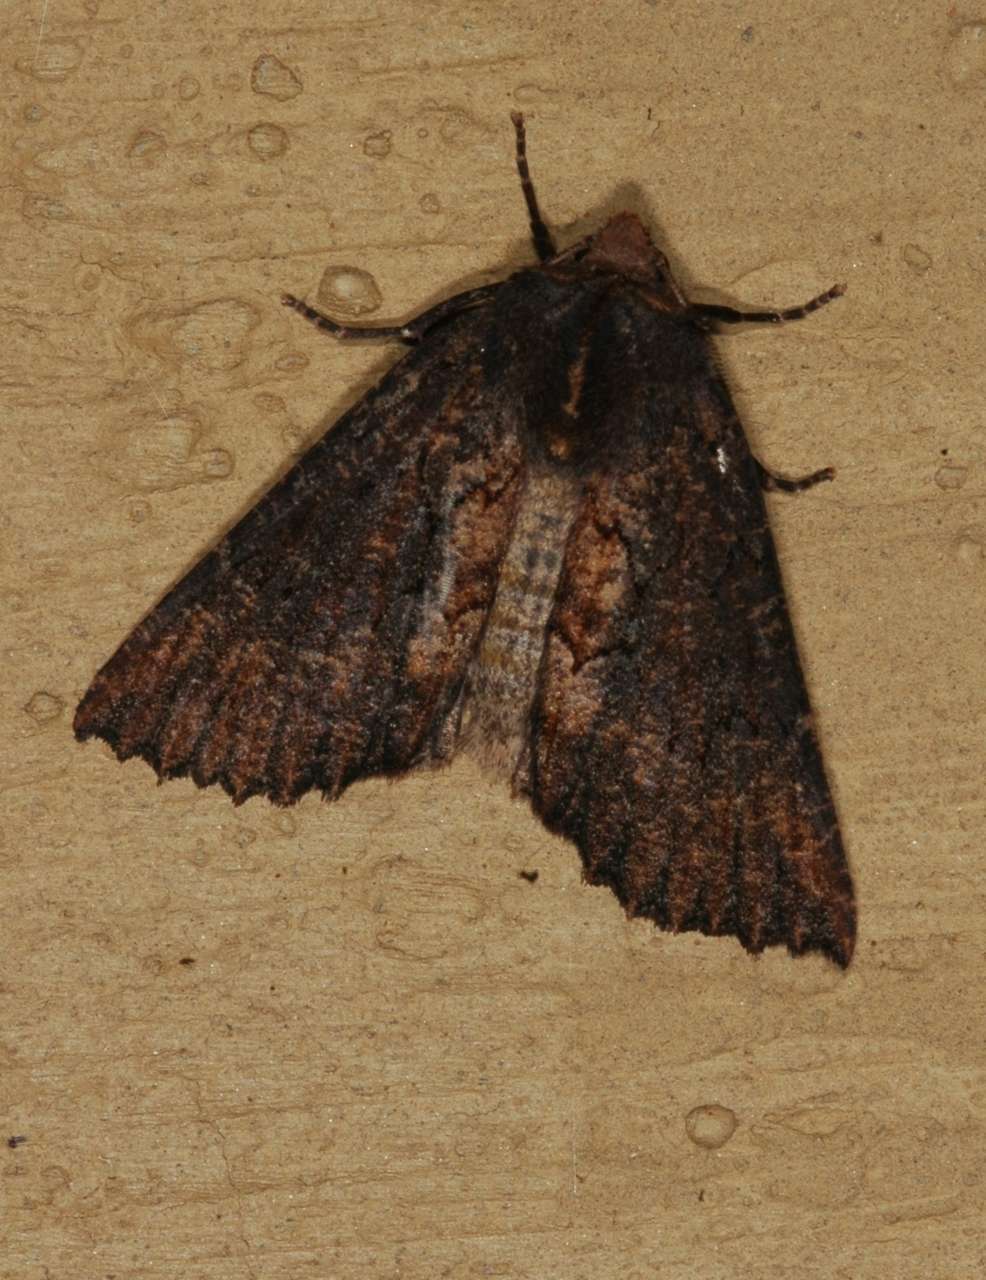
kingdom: Animalia
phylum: Arthropoda
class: Insecta
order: Lepidoptera
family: Geometridae
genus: Nisista
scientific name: Nisista serrata
